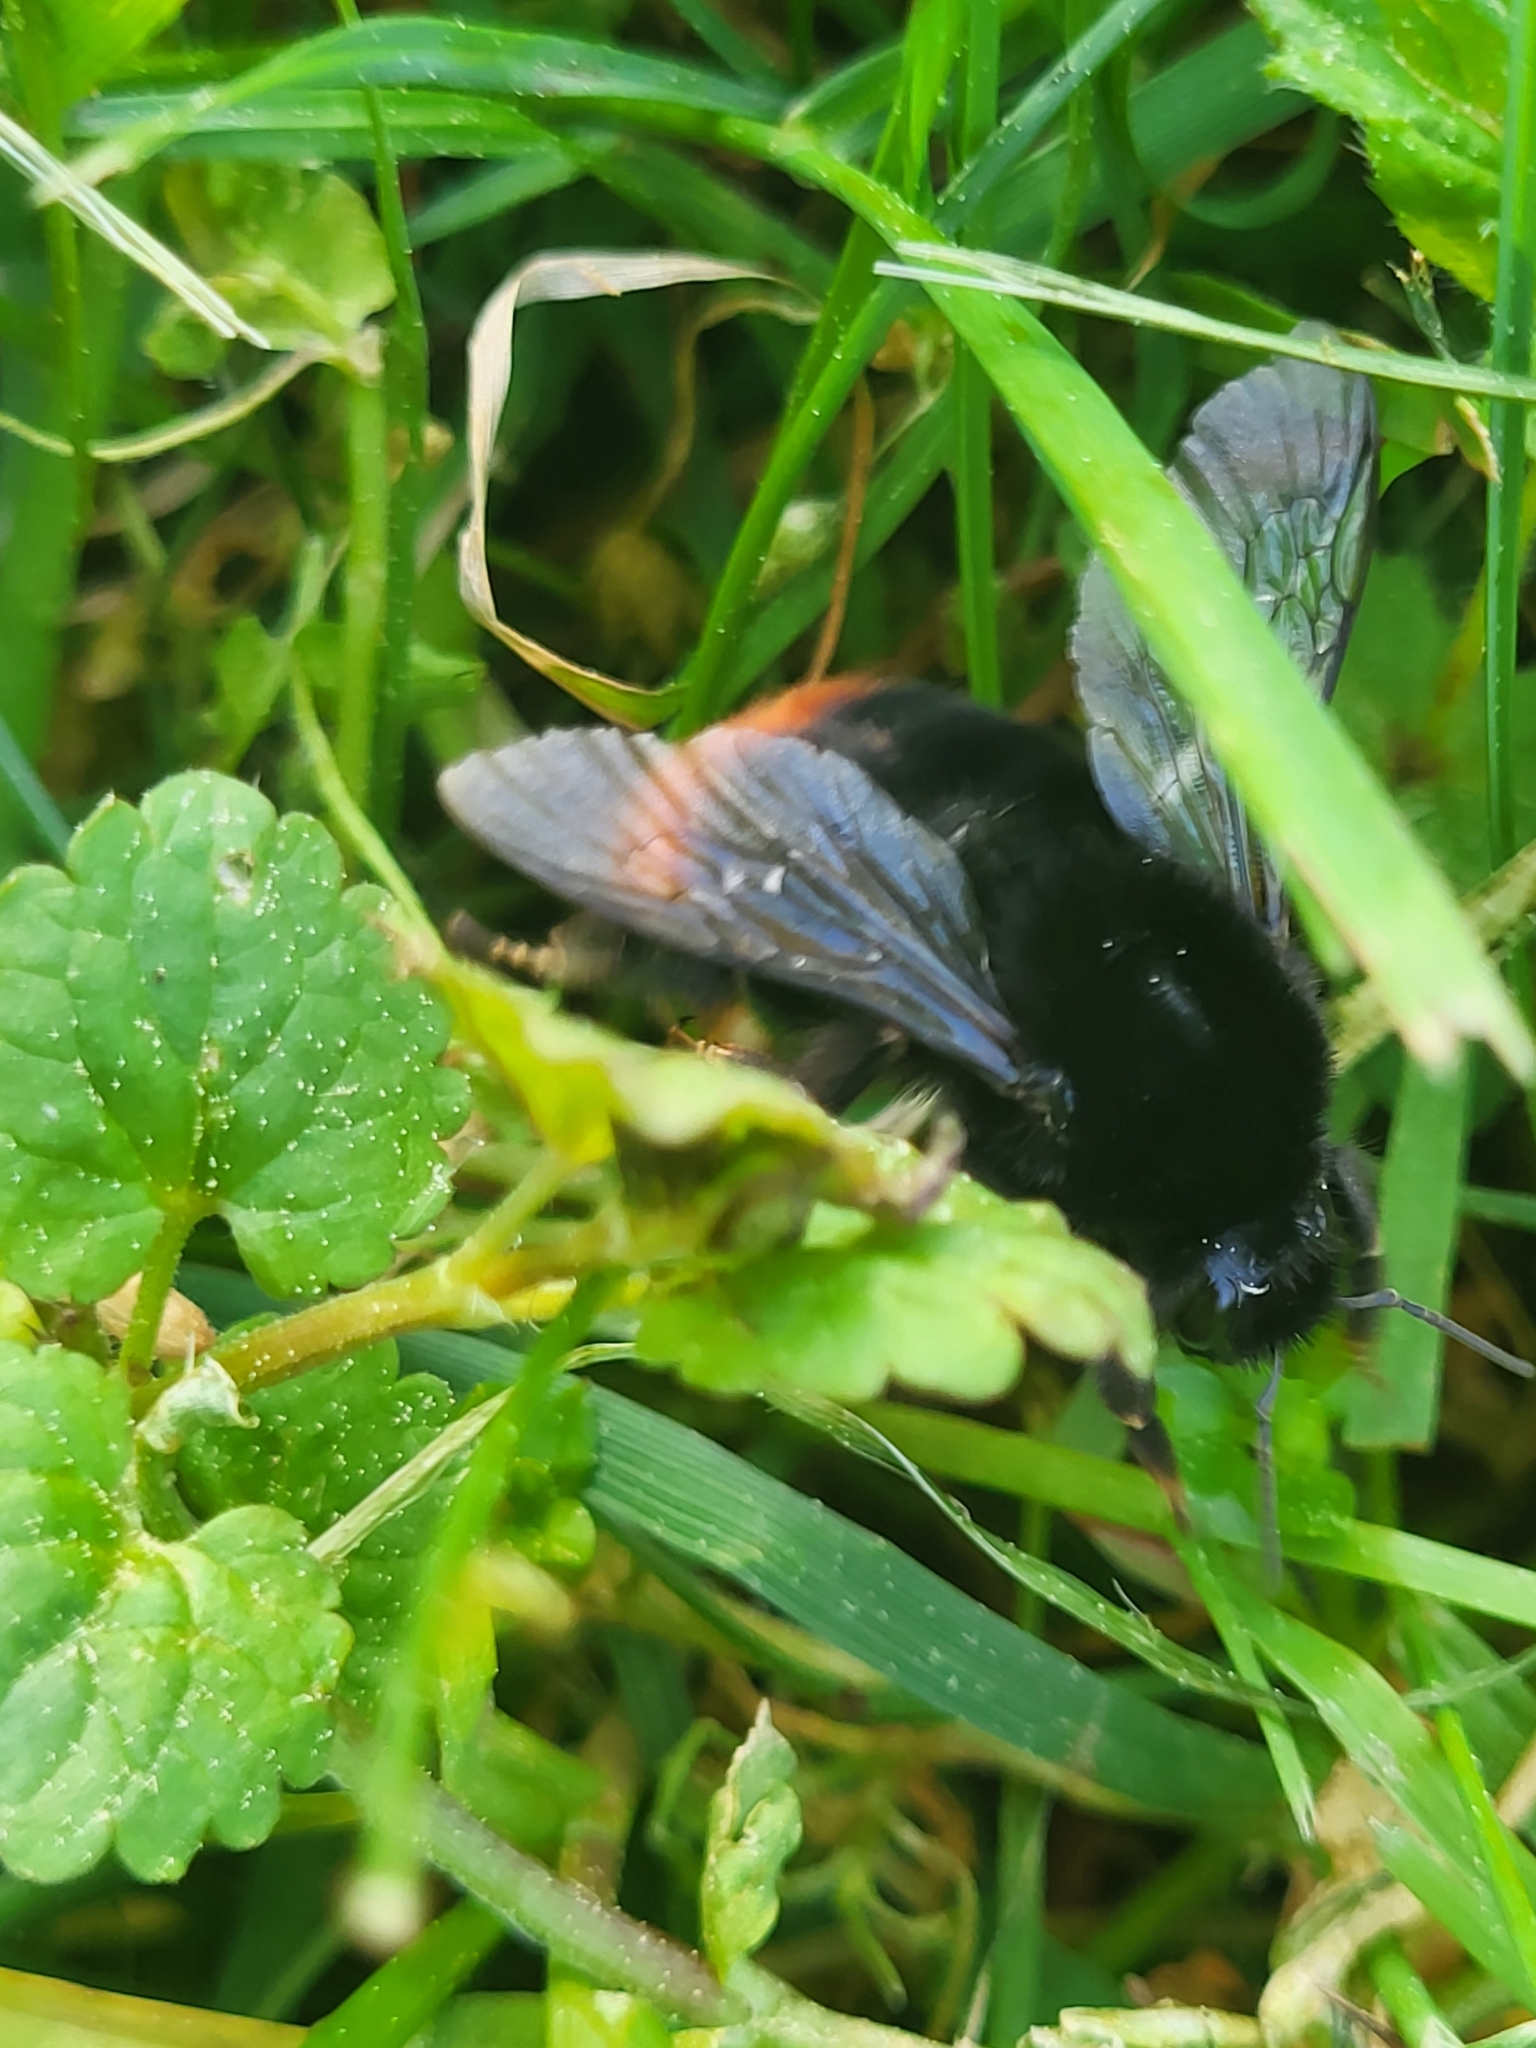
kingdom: Animalia
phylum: Arthropoda
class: Insecta
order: Hymenoptera
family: Apidae
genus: Bombus
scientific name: Bombus lapidarius
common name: Large red-tailed humble-bee
